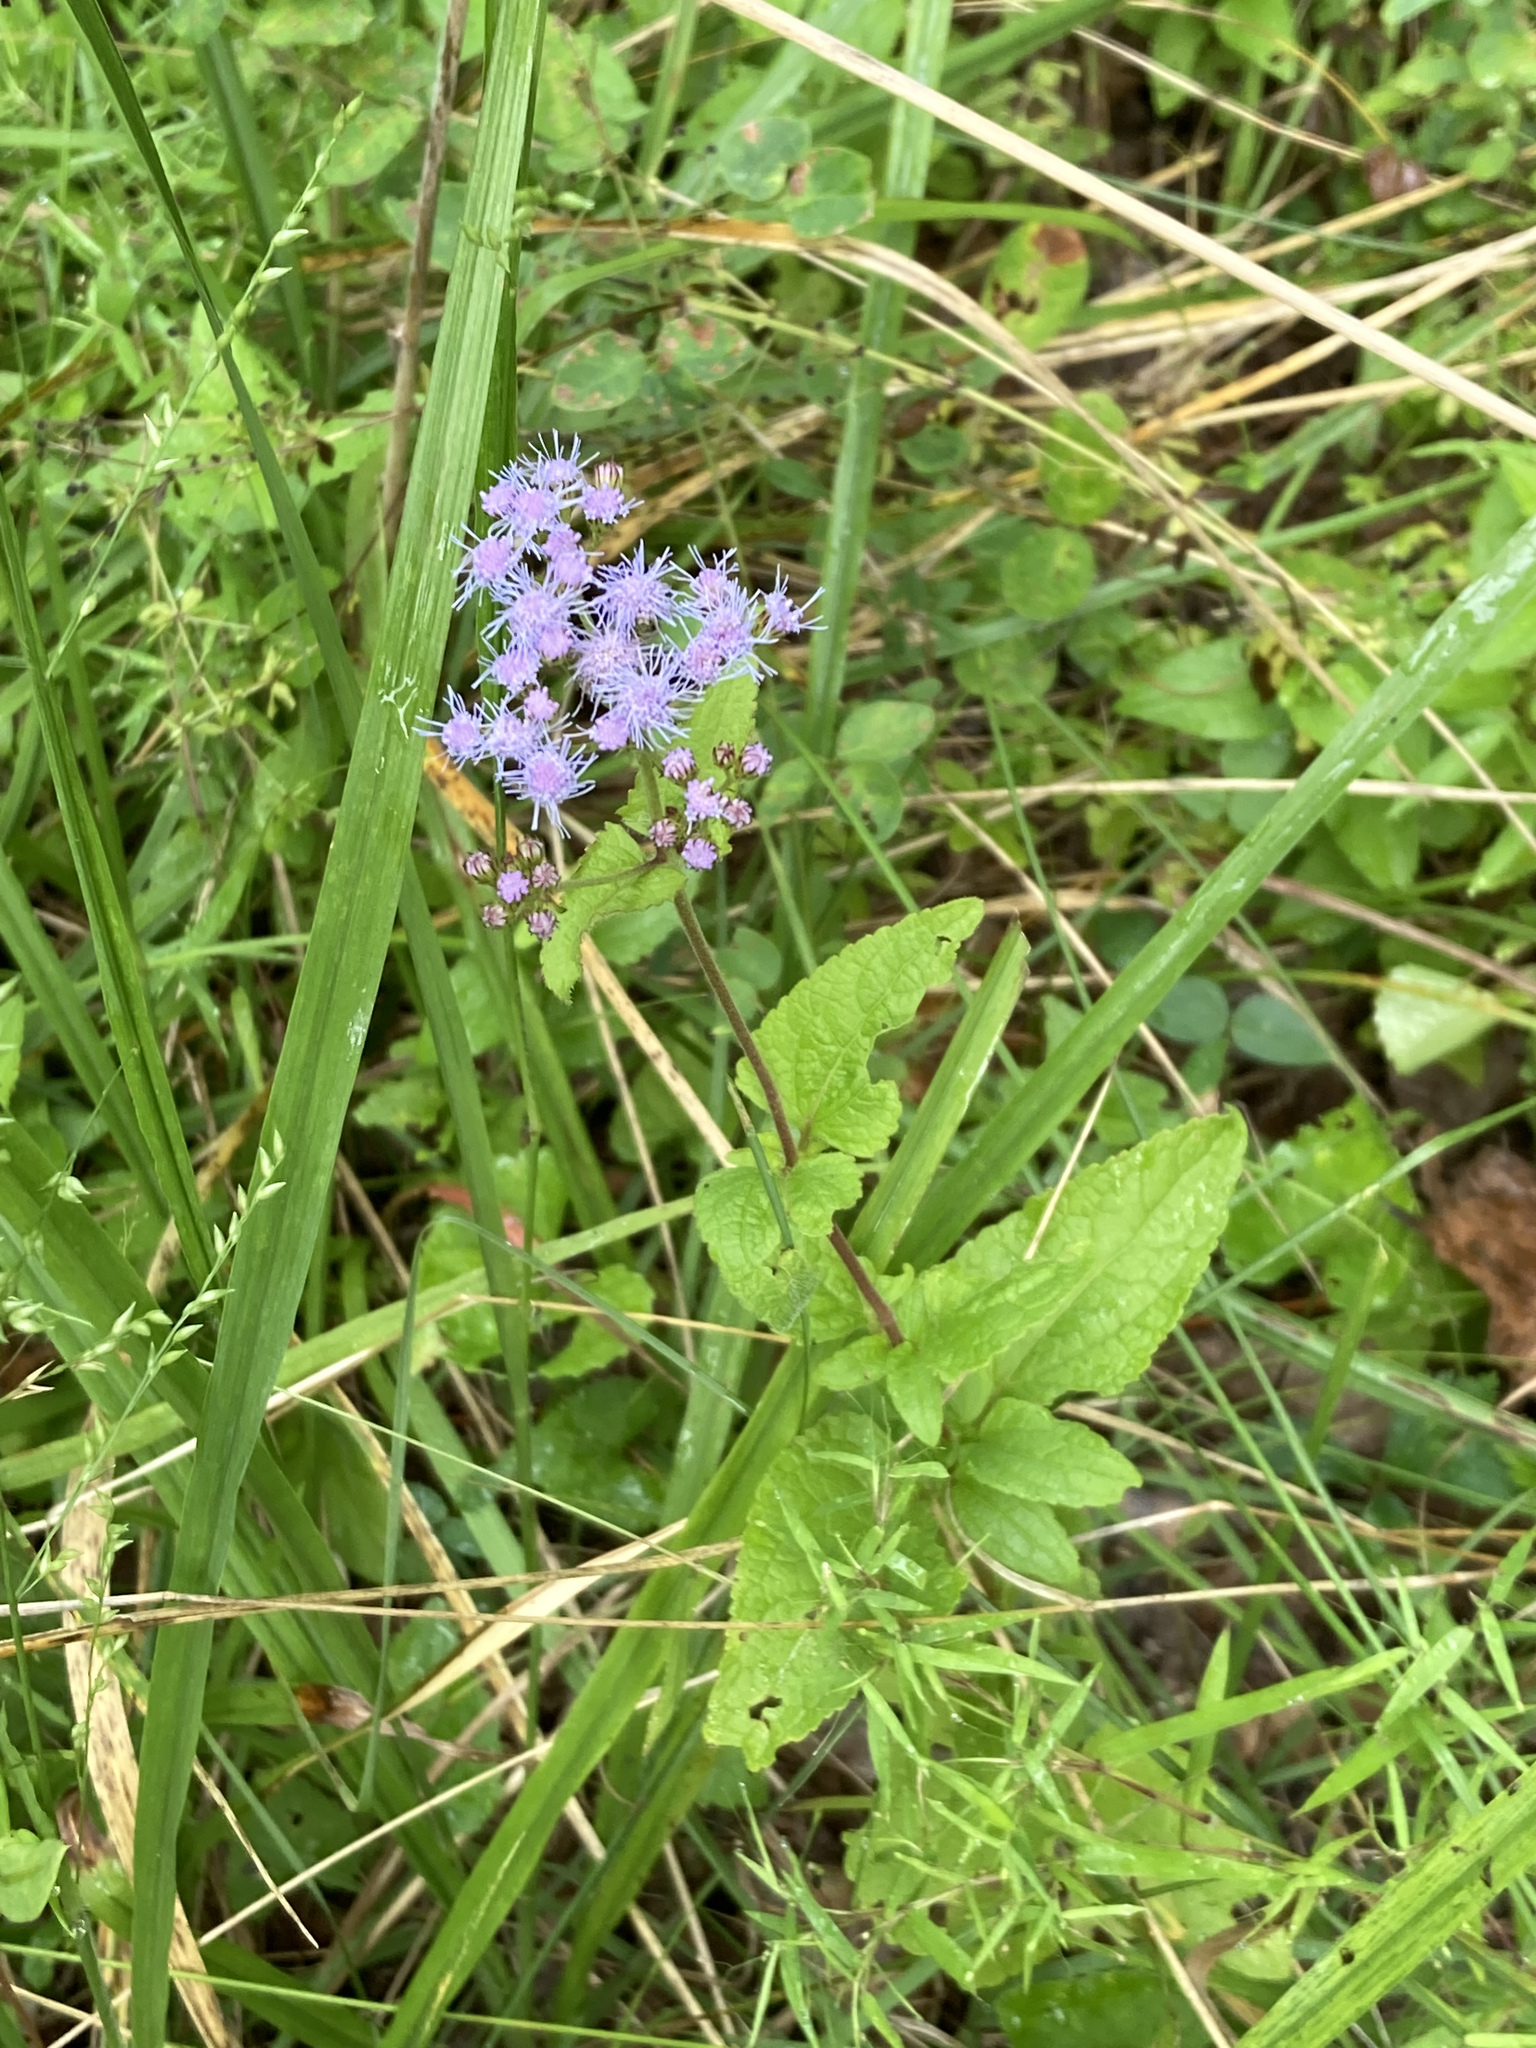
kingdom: Plantae
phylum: Tracheophyta
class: Magnoliopsida
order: Asterales
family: Asteraceae
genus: Conoclinium
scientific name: Conoclinium coelestinum
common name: Blue mistflower
